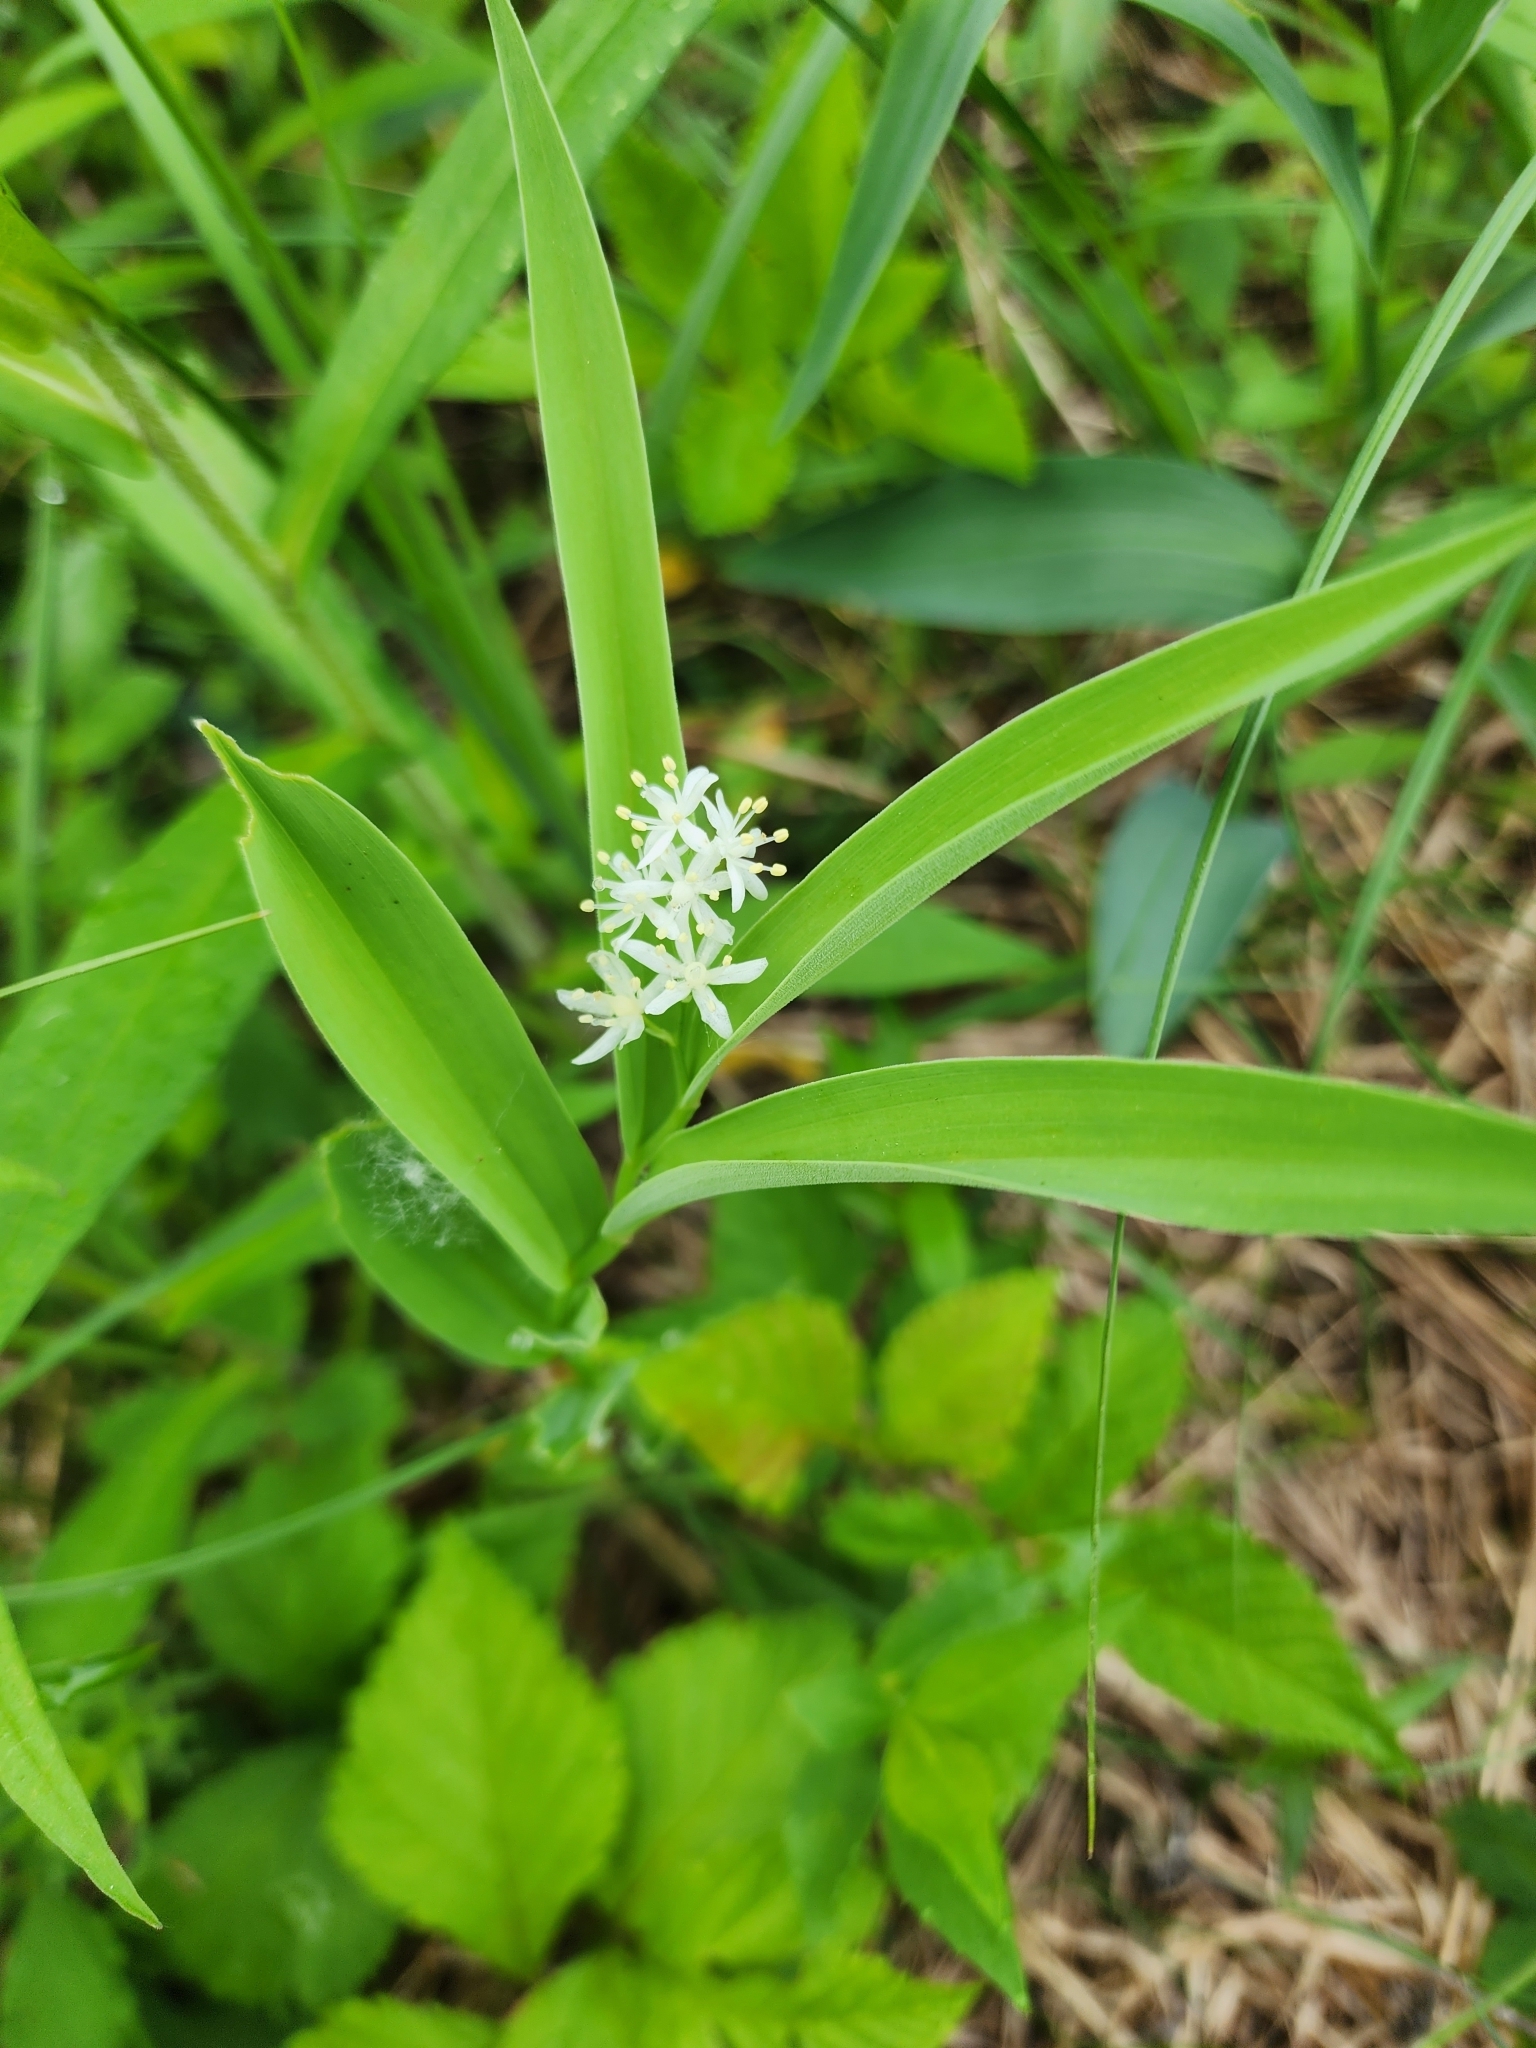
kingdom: Plantae
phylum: Tracheophyta
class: Liliopsida
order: Asparagales
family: Asparagaceae
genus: Maianthemum
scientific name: Maianthemum stellatum
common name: Little false solomon's seal
